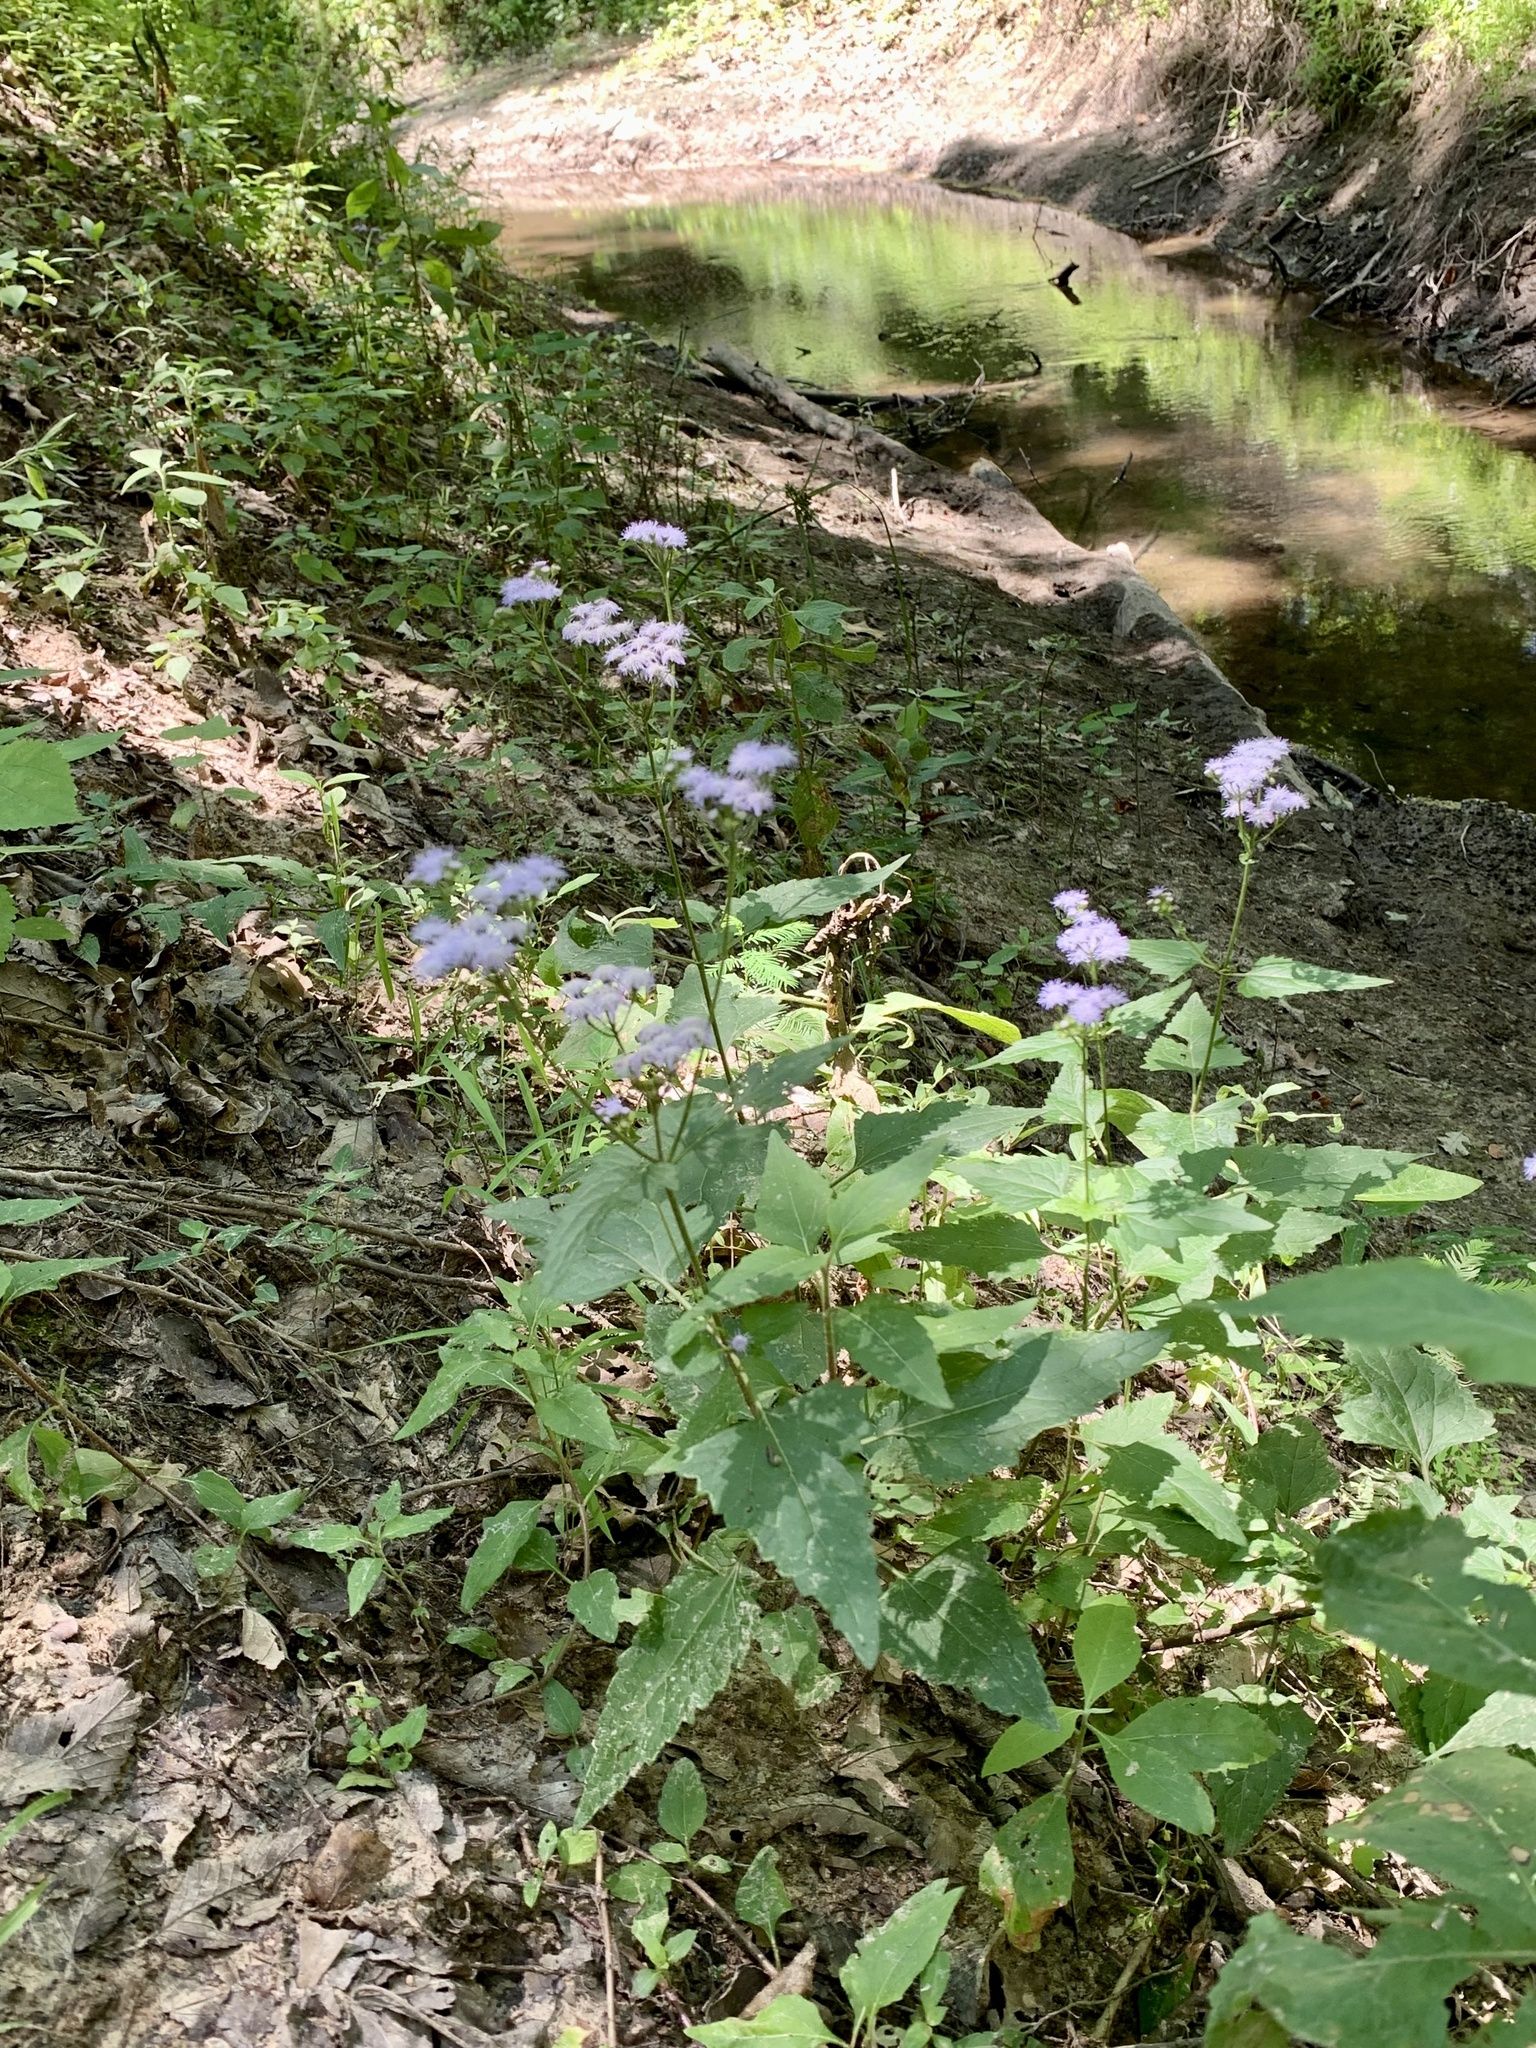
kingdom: Plantae
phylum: Tracheophyta
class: Magnoliopsida
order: Asterales
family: Asteraceae
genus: Conoclinium
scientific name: Conoclinium coelestinum
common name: Blue mistflower
